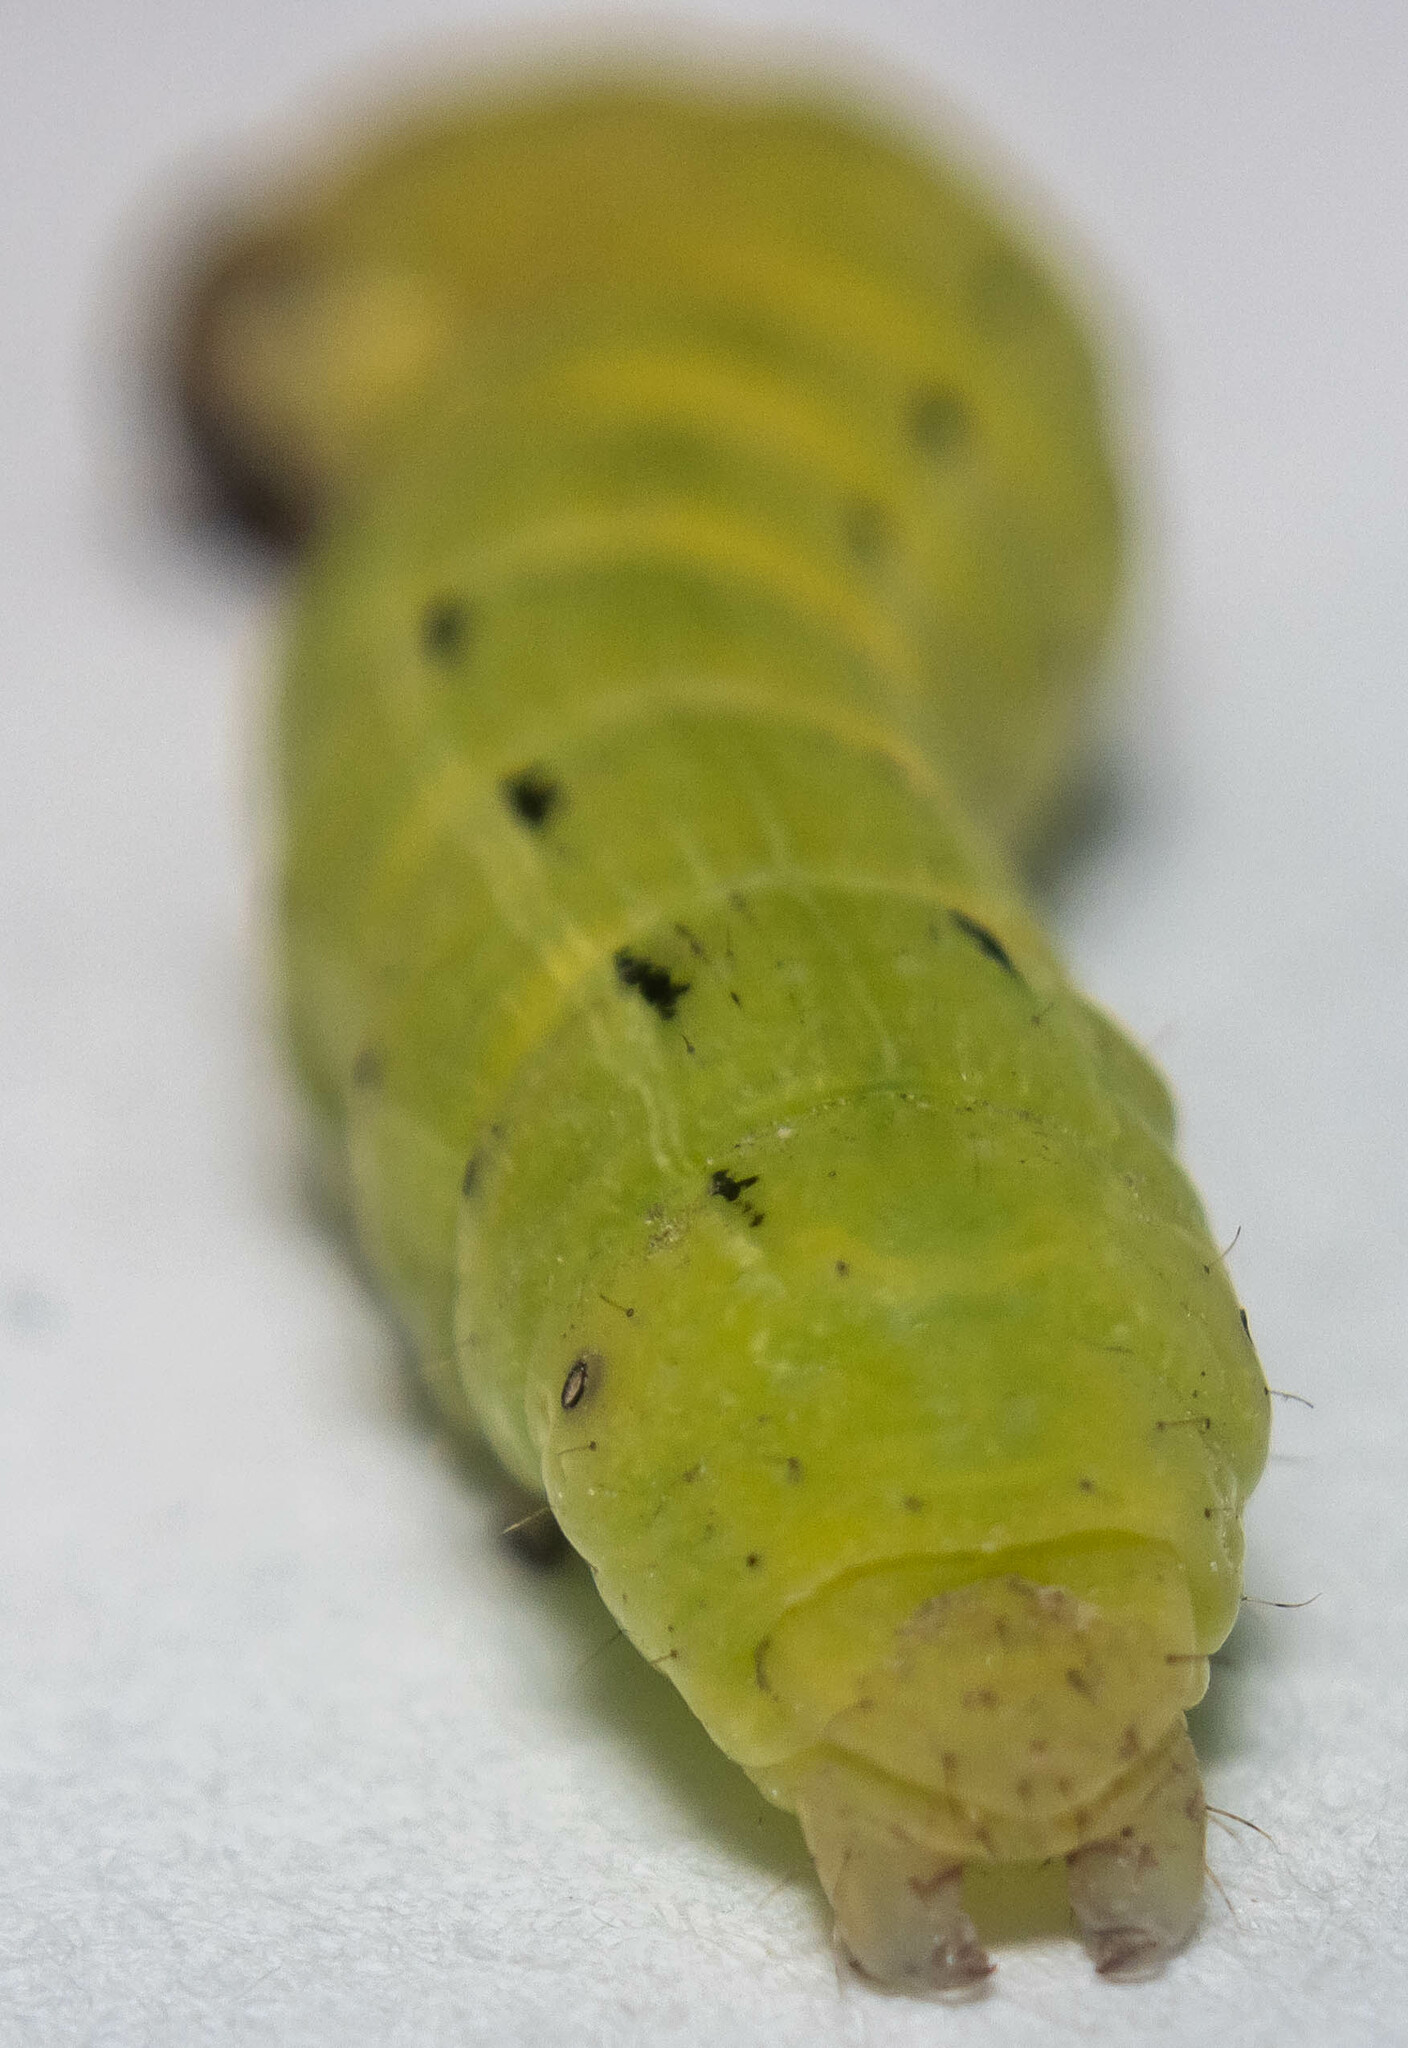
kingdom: Animalia
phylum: Arthropoda
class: Insecta
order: Lepidoptera
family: Noctuidae
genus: Noctua
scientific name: Noctua pronuba
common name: Large yellow underwing
